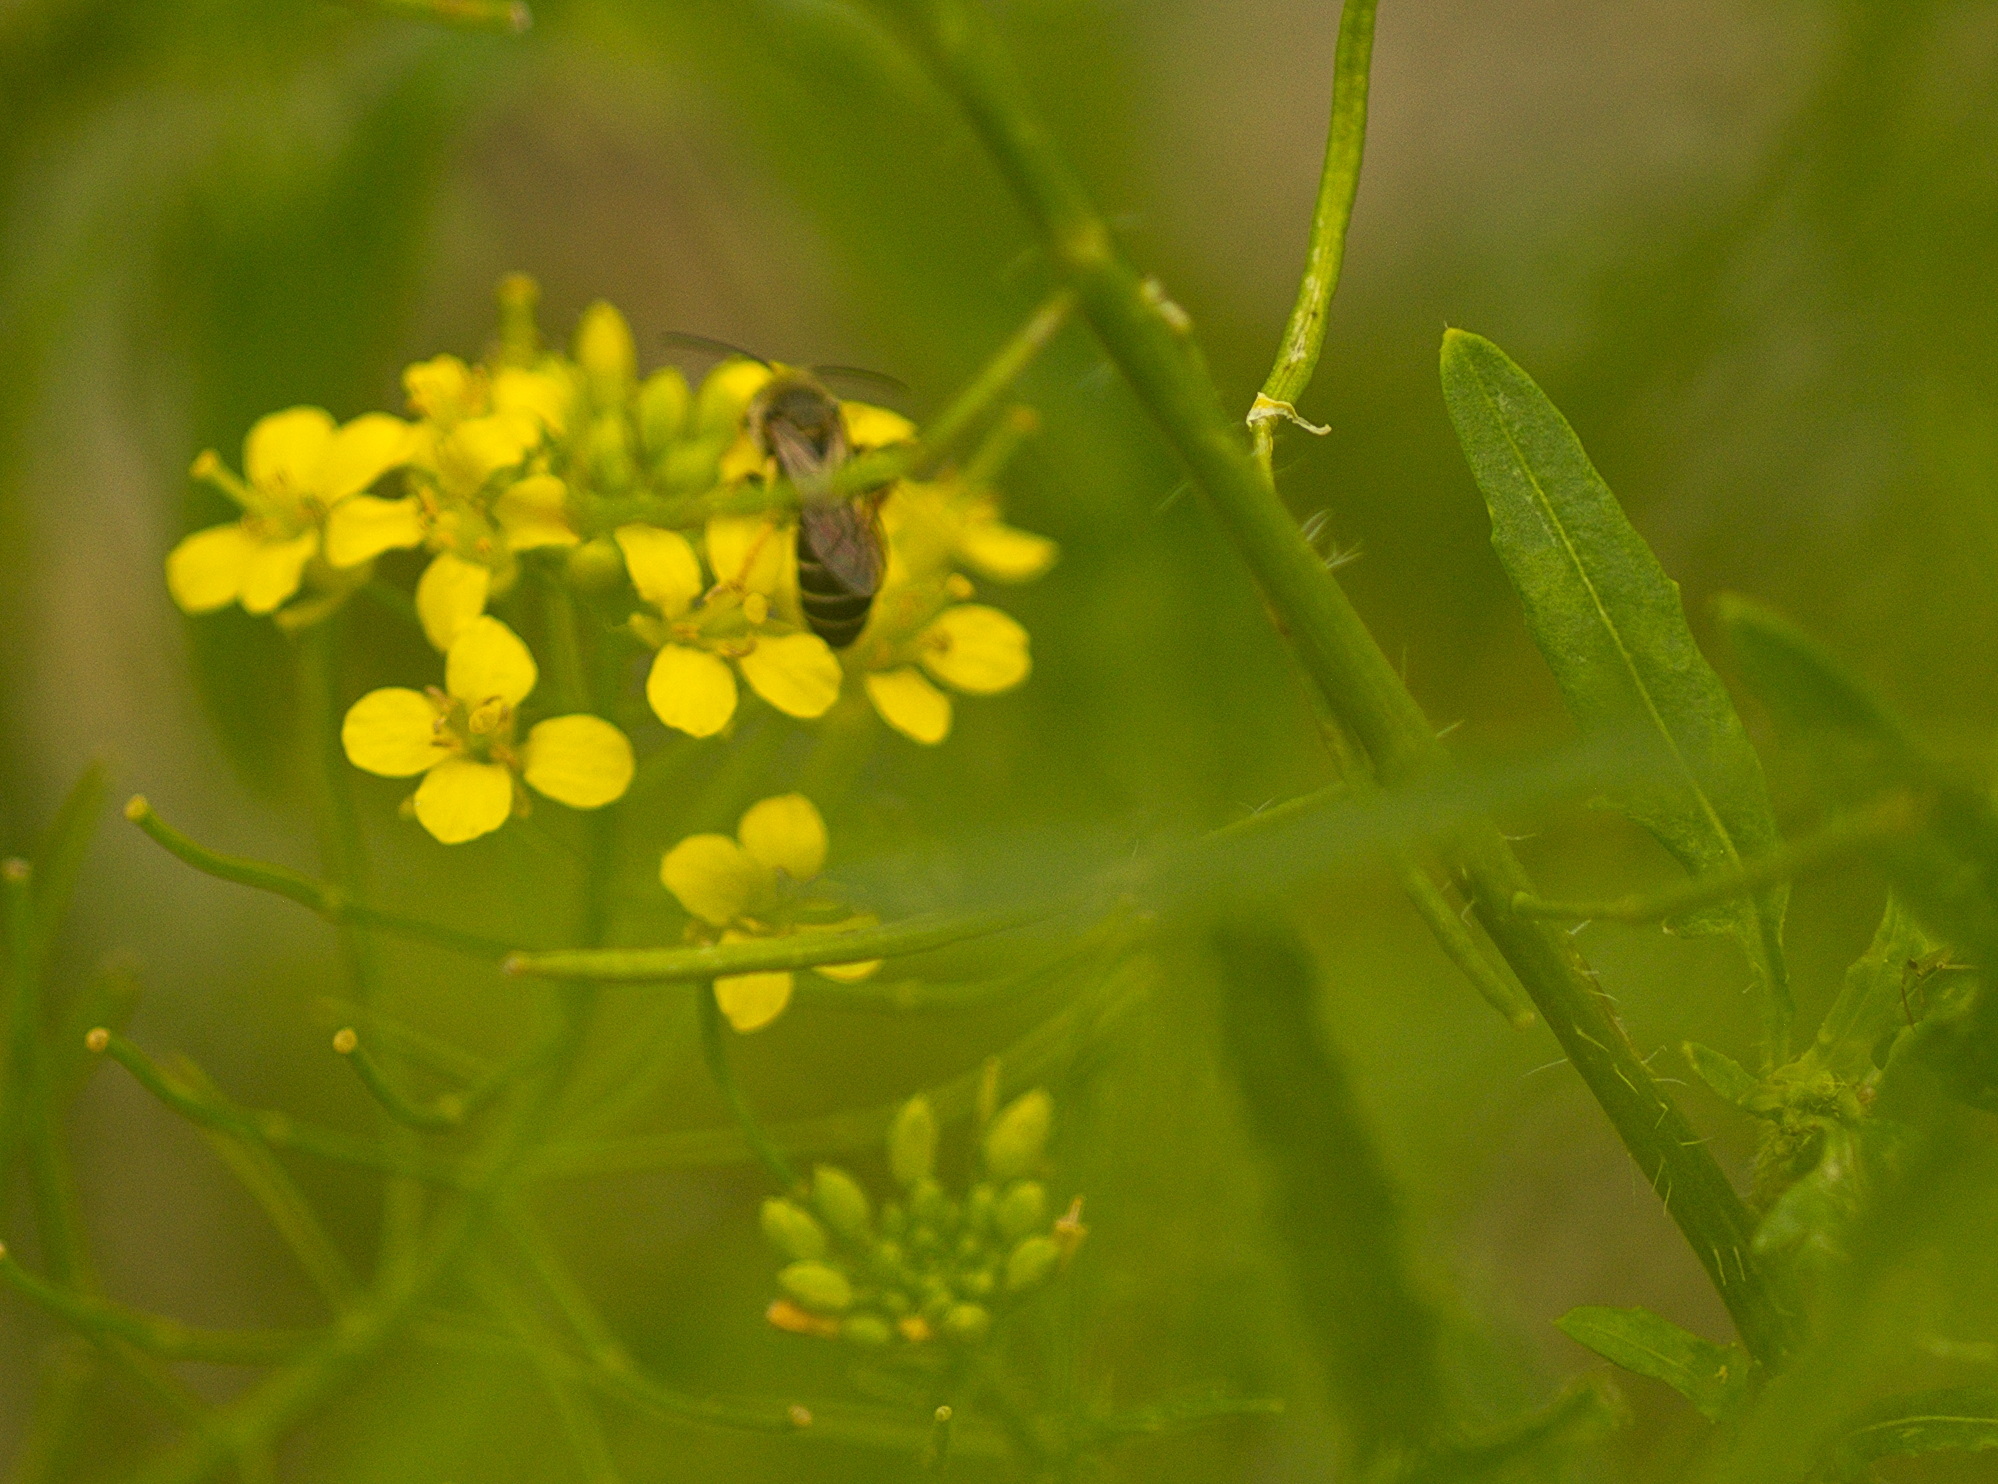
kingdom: Animalia
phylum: Arthropoda
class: Insecta
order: Hymenoptera
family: Halictidae
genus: Halictus
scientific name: Halictus rubicundus
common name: Orange-legged furrow bee
